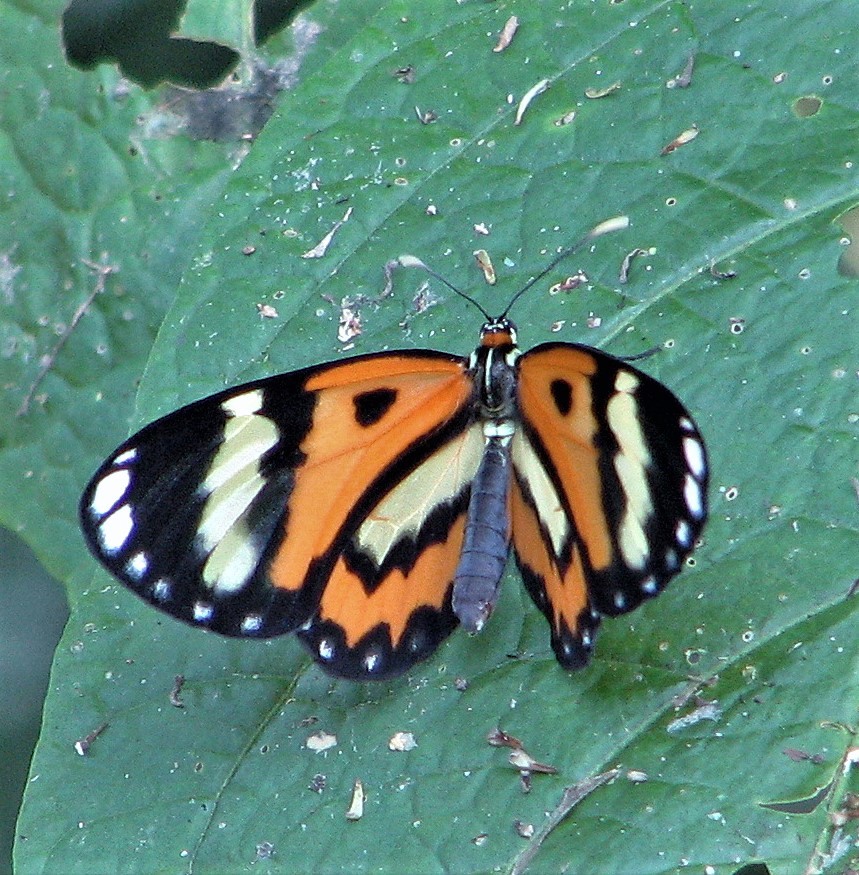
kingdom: Animalia
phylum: Arthropoda
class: Insecta
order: Lepidoptera
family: Nymphalidae
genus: Placidina
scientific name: Placidina euryanassa
